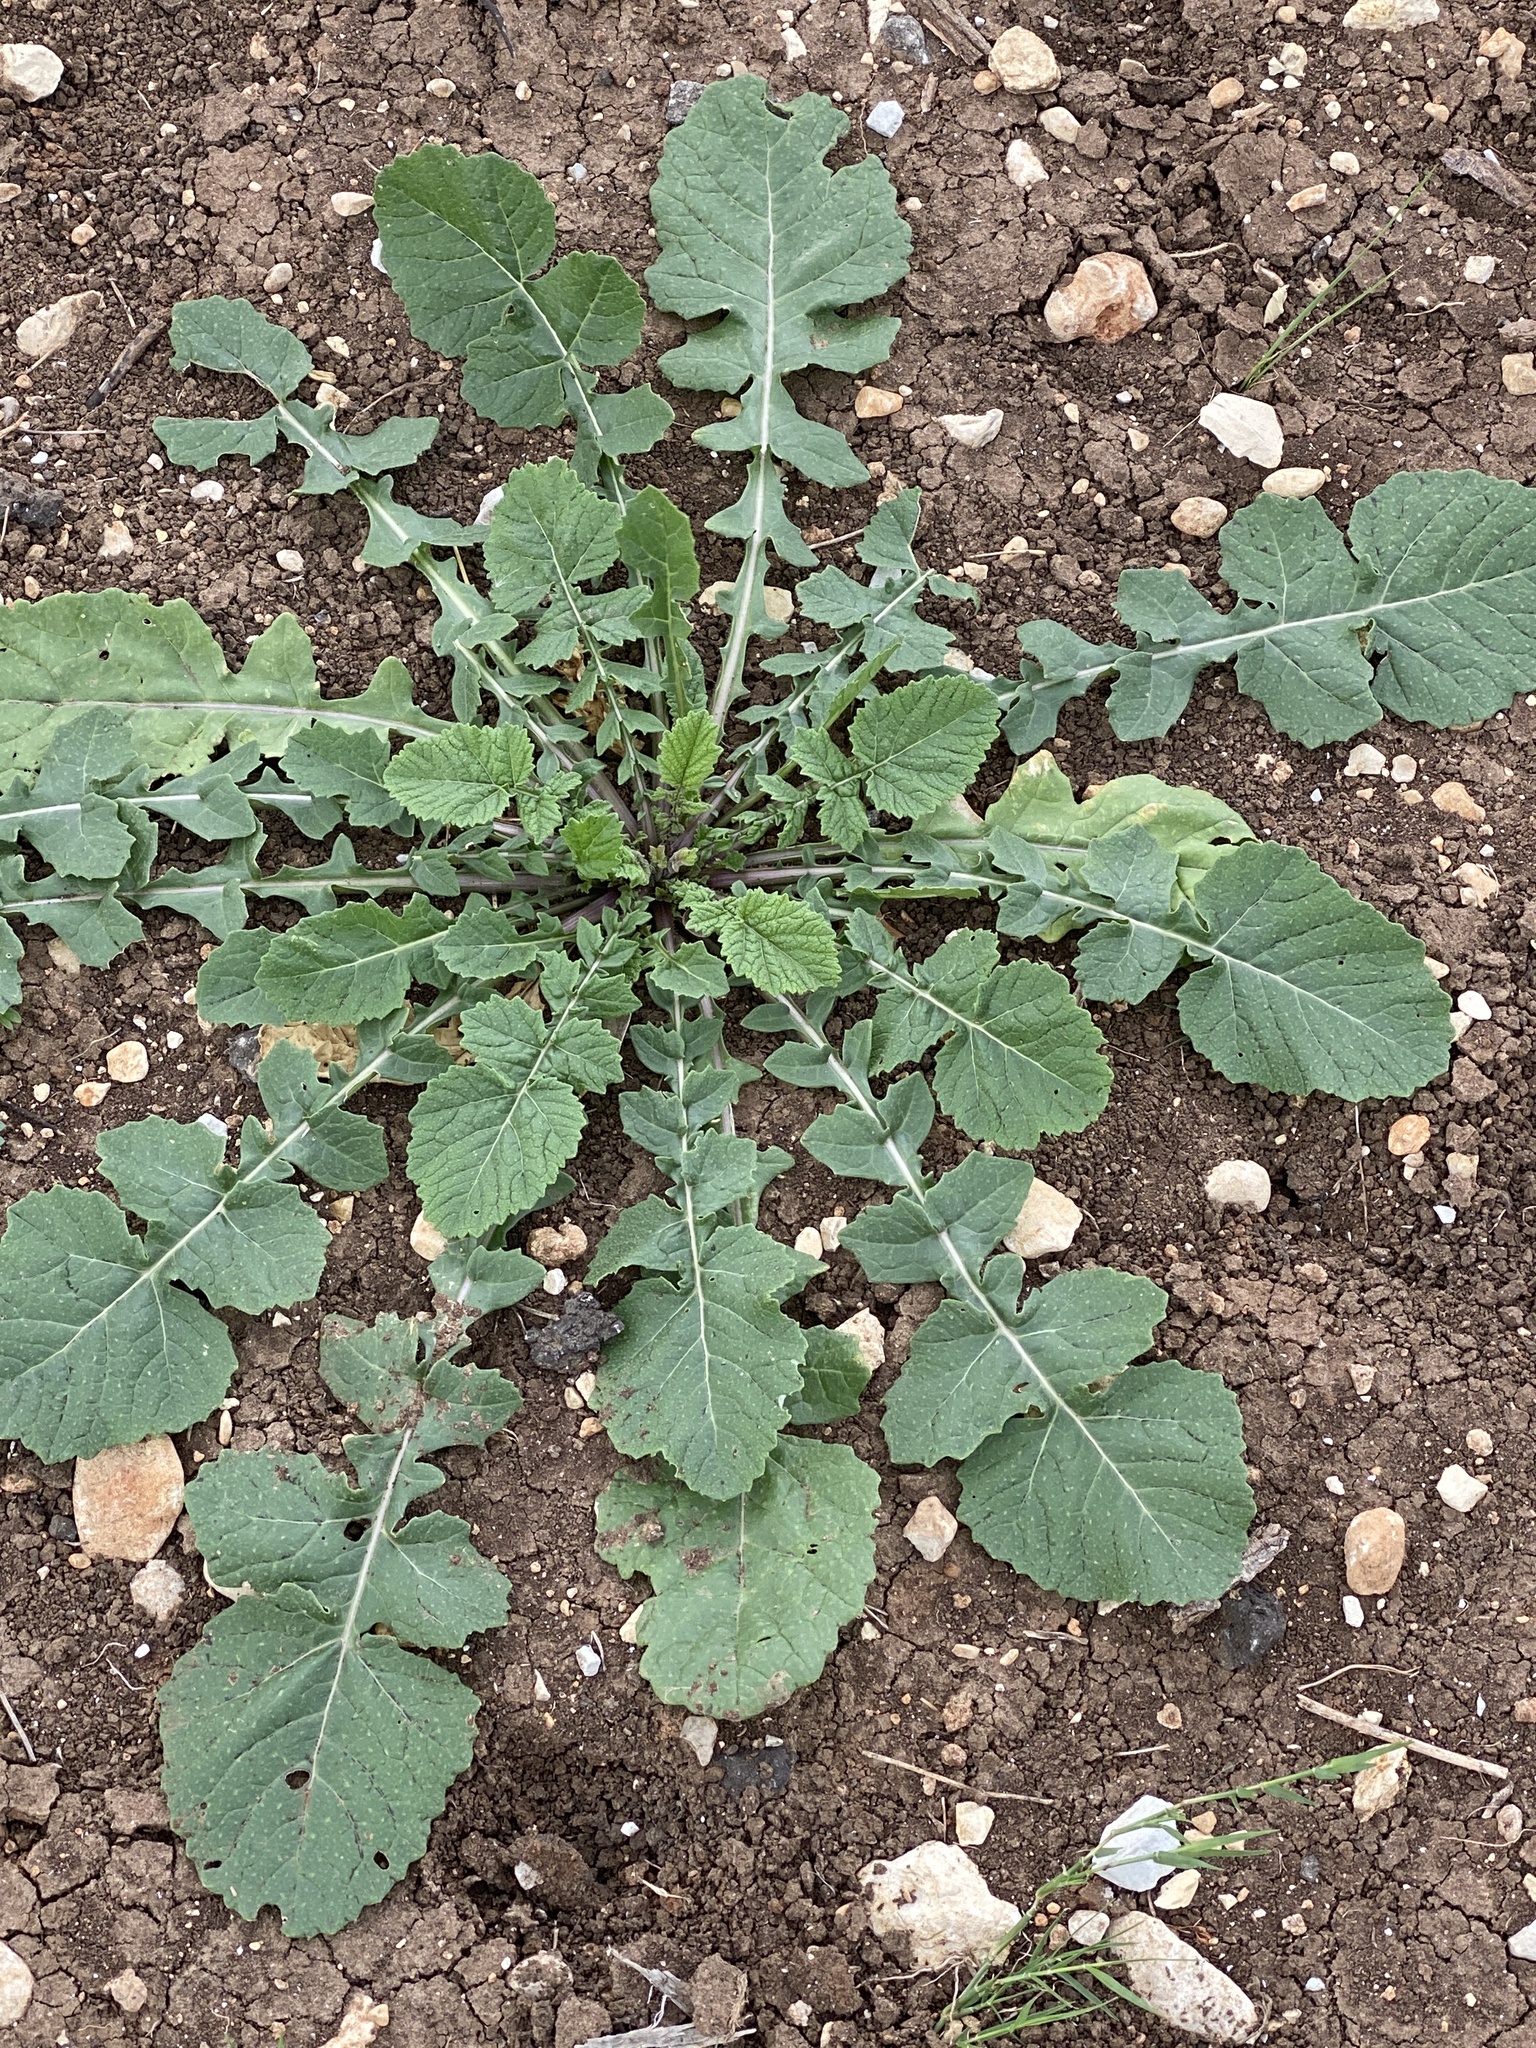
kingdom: Plantae
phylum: Tracheophyta
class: Magnoliopsida
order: Brassicales
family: Brassicaceae
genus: Rapistrum
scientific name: Rapistrum rugosum
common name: Annual bastardcabbage
